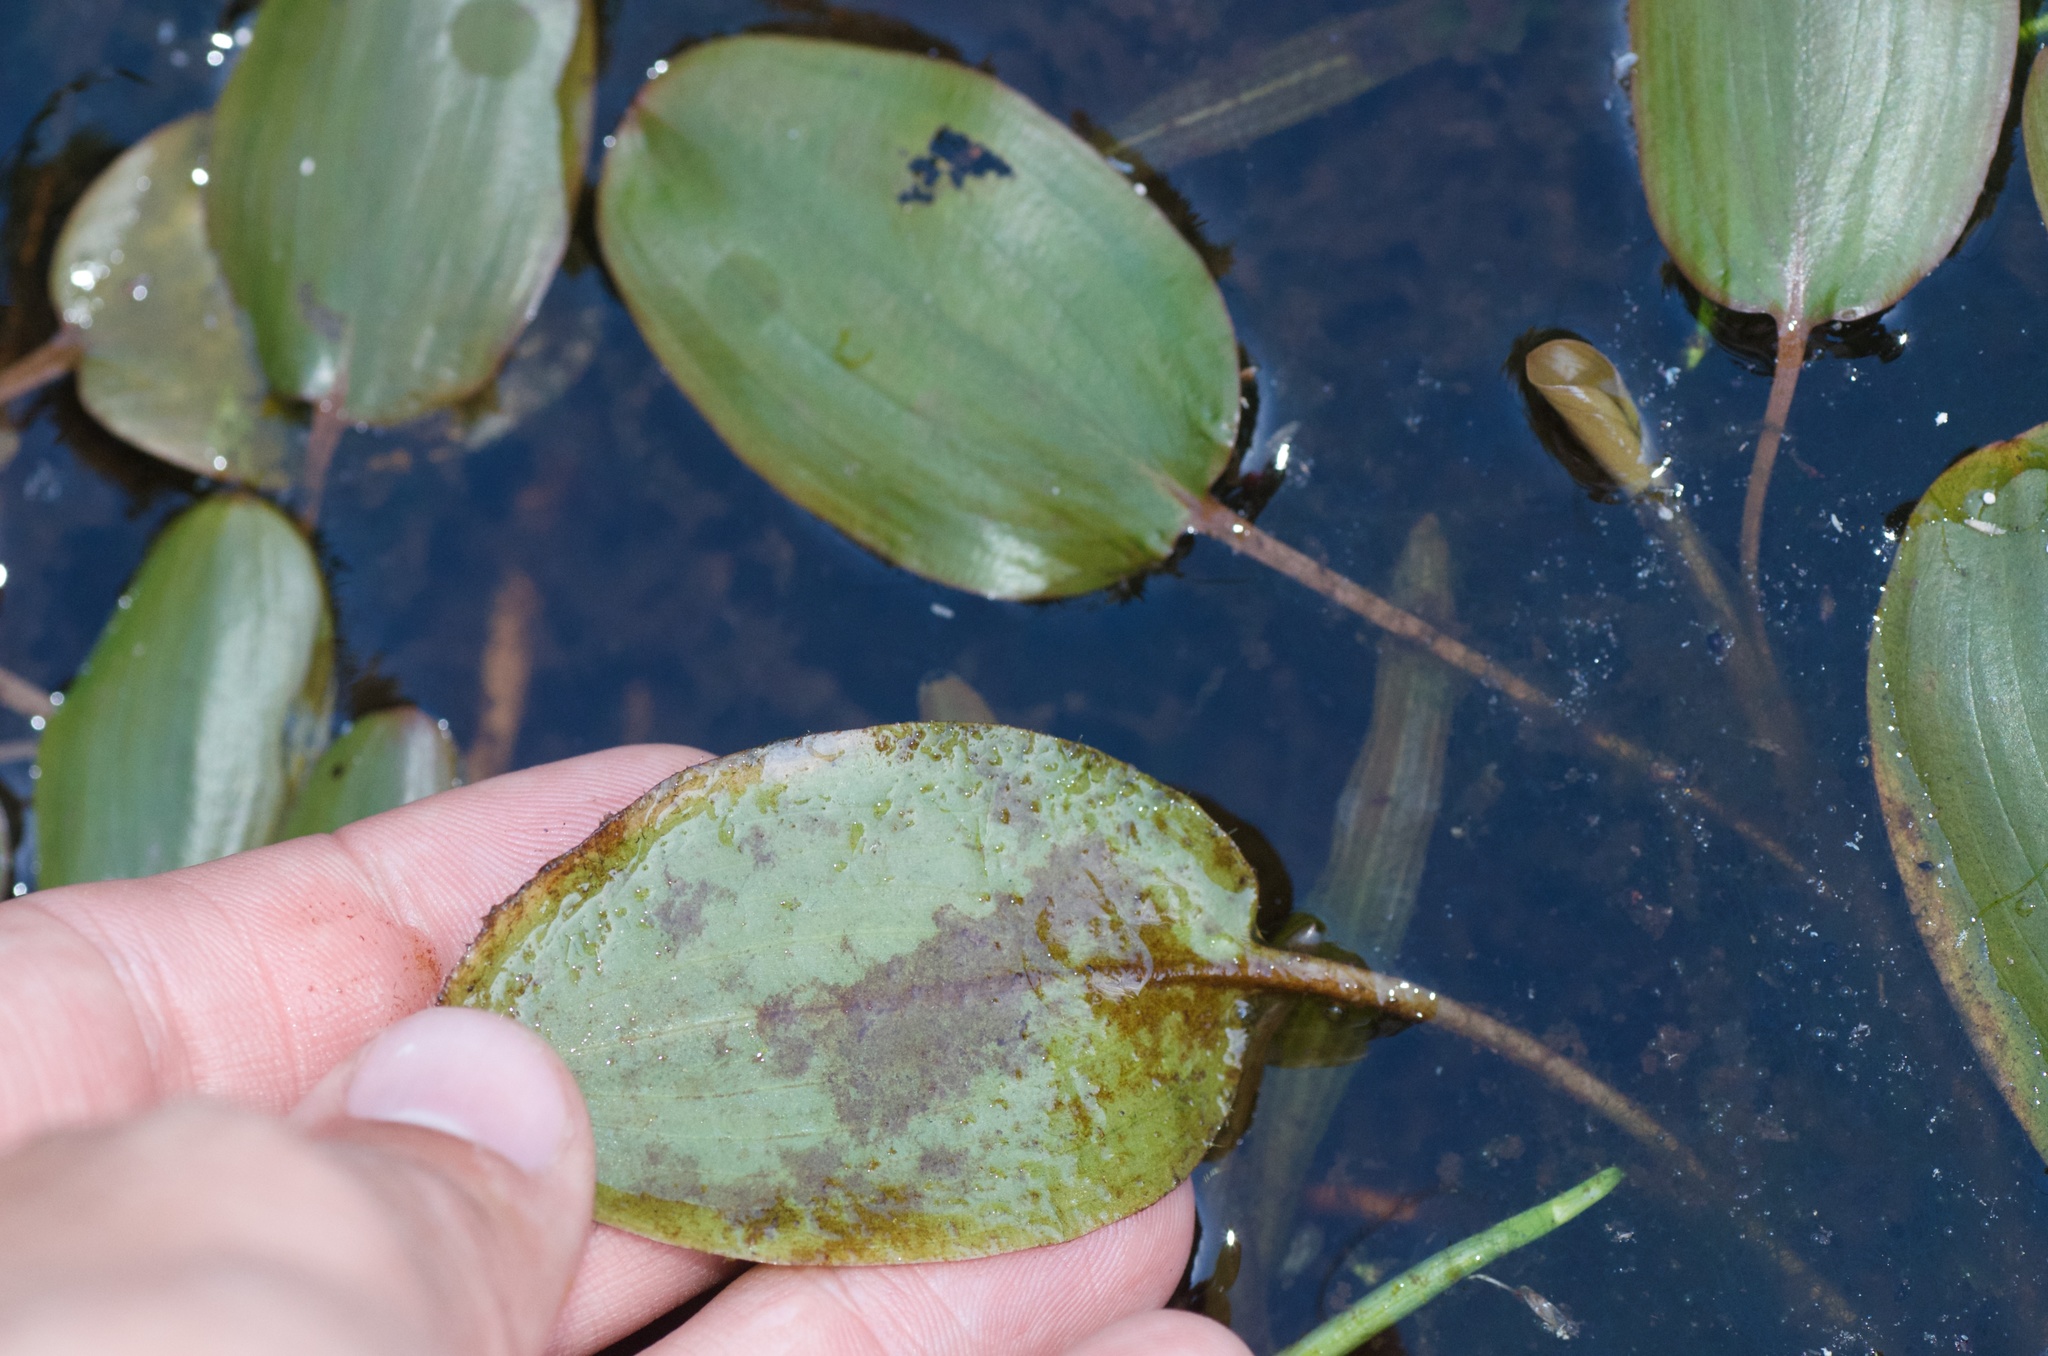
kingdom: Plantae
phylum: Tracheophyta
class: Liliopsida
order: Alismatales
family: Potamogetonaceae
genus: Potamogeton
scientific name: Potamogeton cheesemanii
